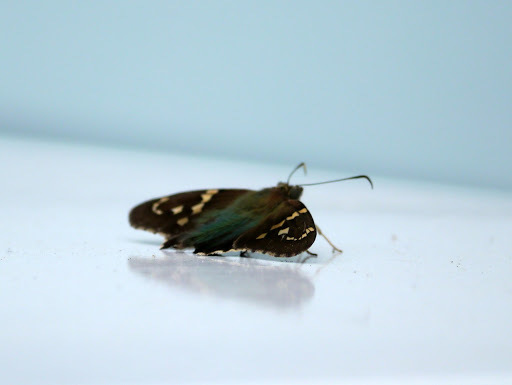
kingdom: Animalia
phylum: Arthropoda
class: Insecta
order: Lepidoptera
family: Hesperiidae
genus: Urbanus
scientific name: Urbanus proteus
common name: Long-tailed skipper
